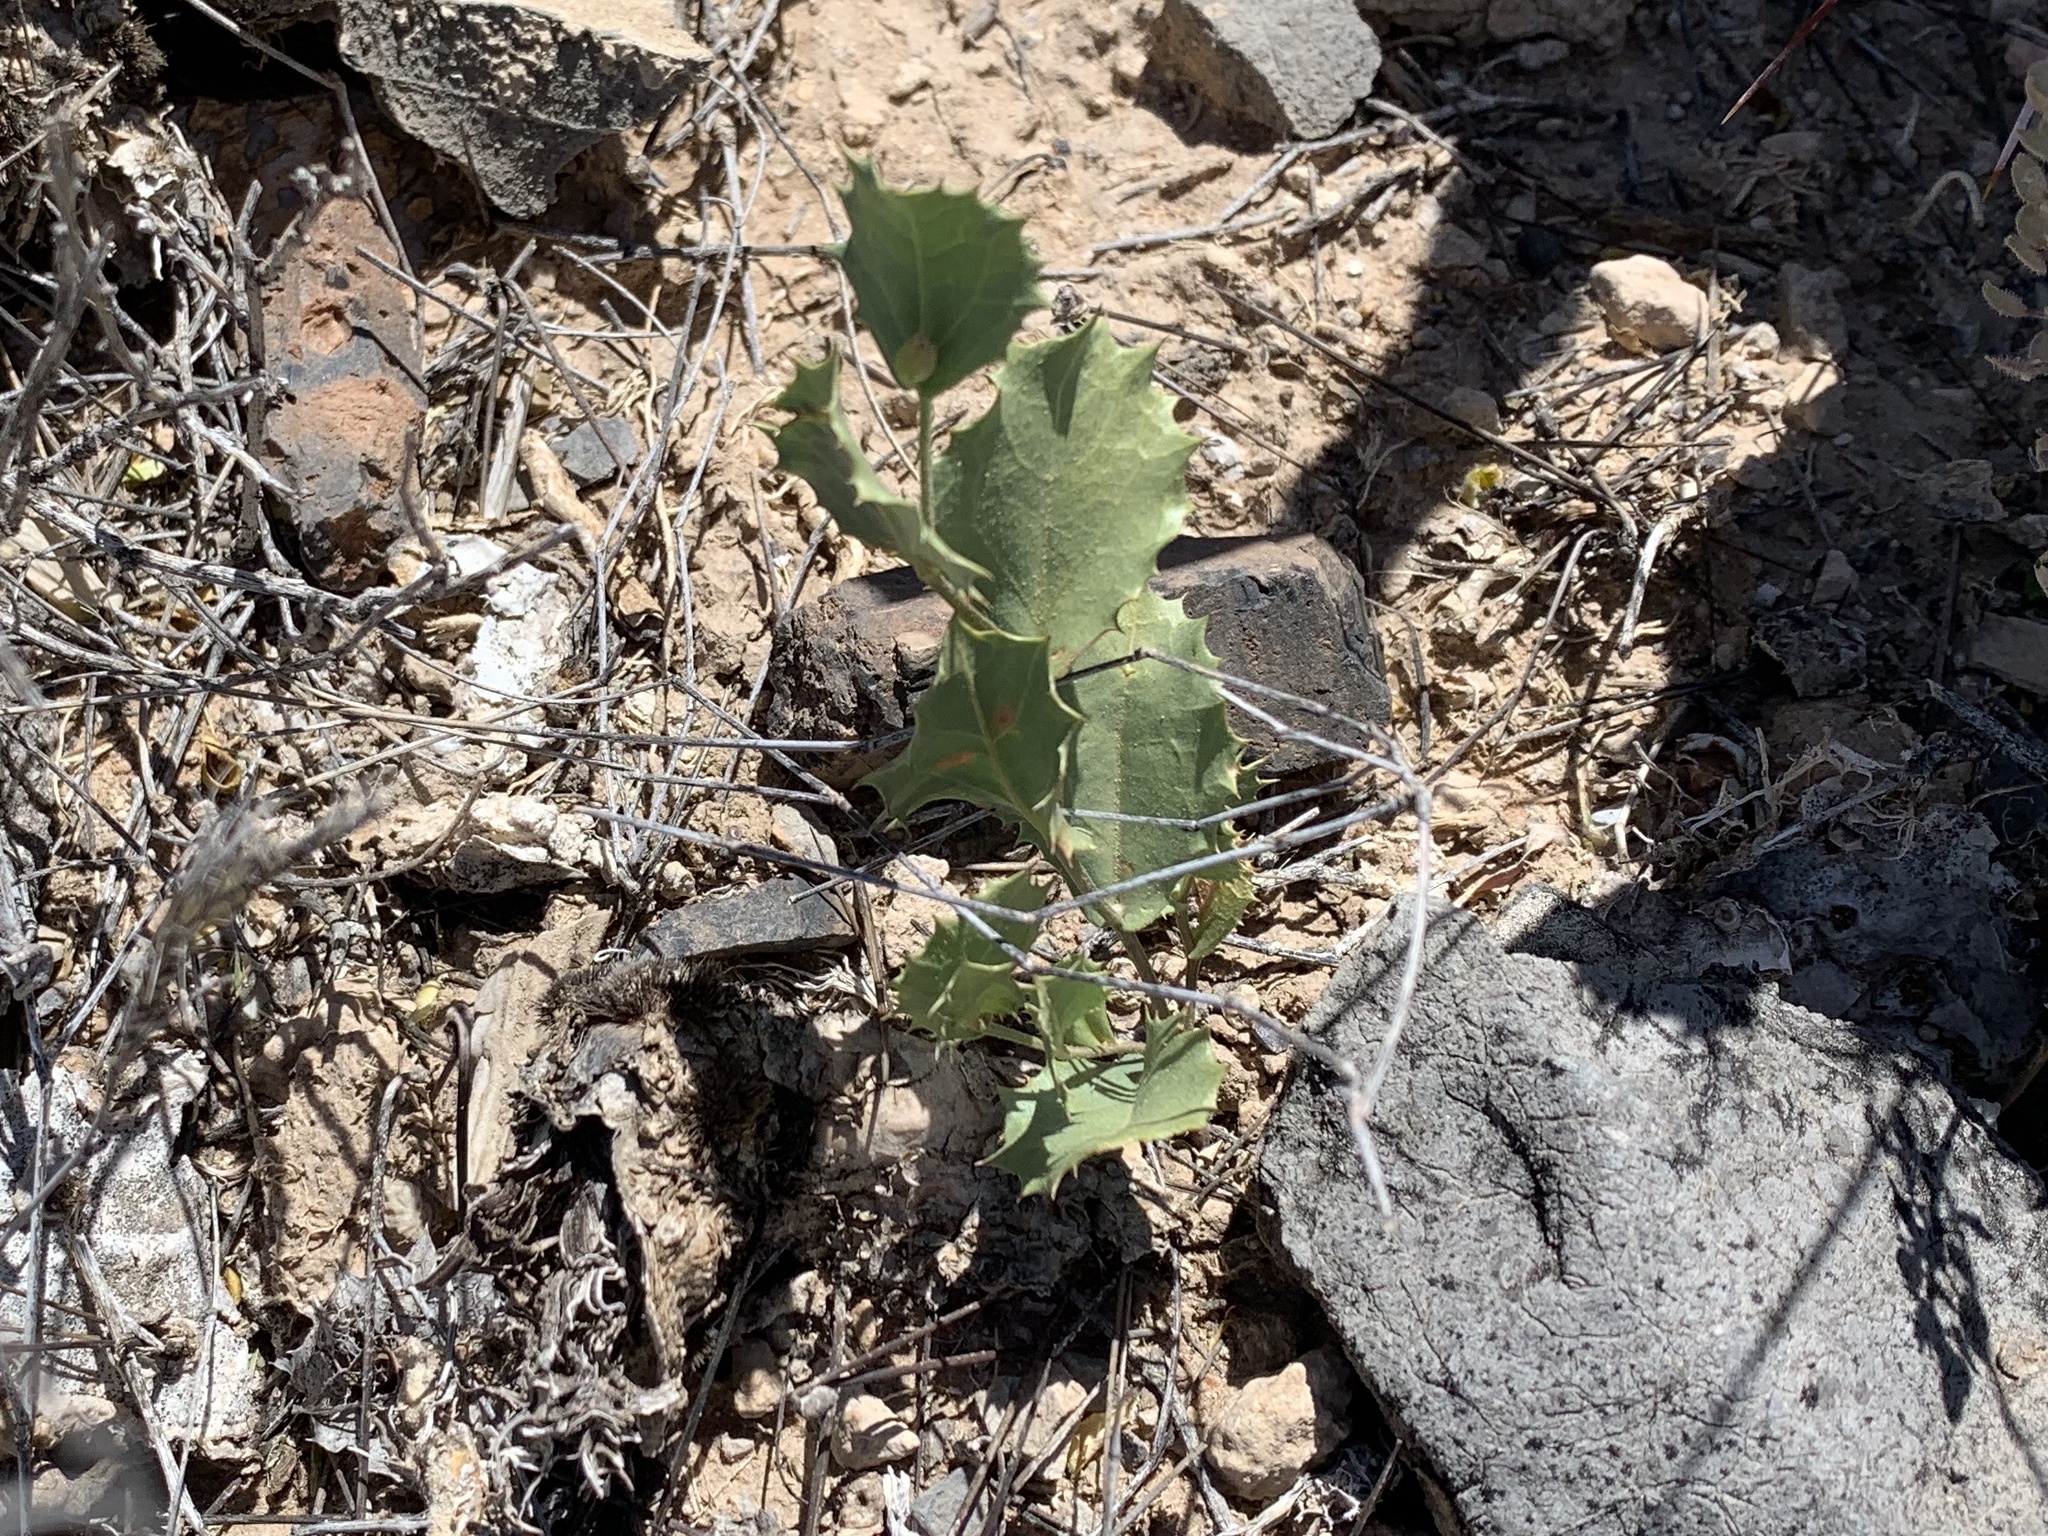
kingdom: Plantae
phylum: Tracheophyta
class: Magnoliopsida
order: Asterales
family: Asteraceae
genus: Acourtia
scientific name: Acourtia nana
